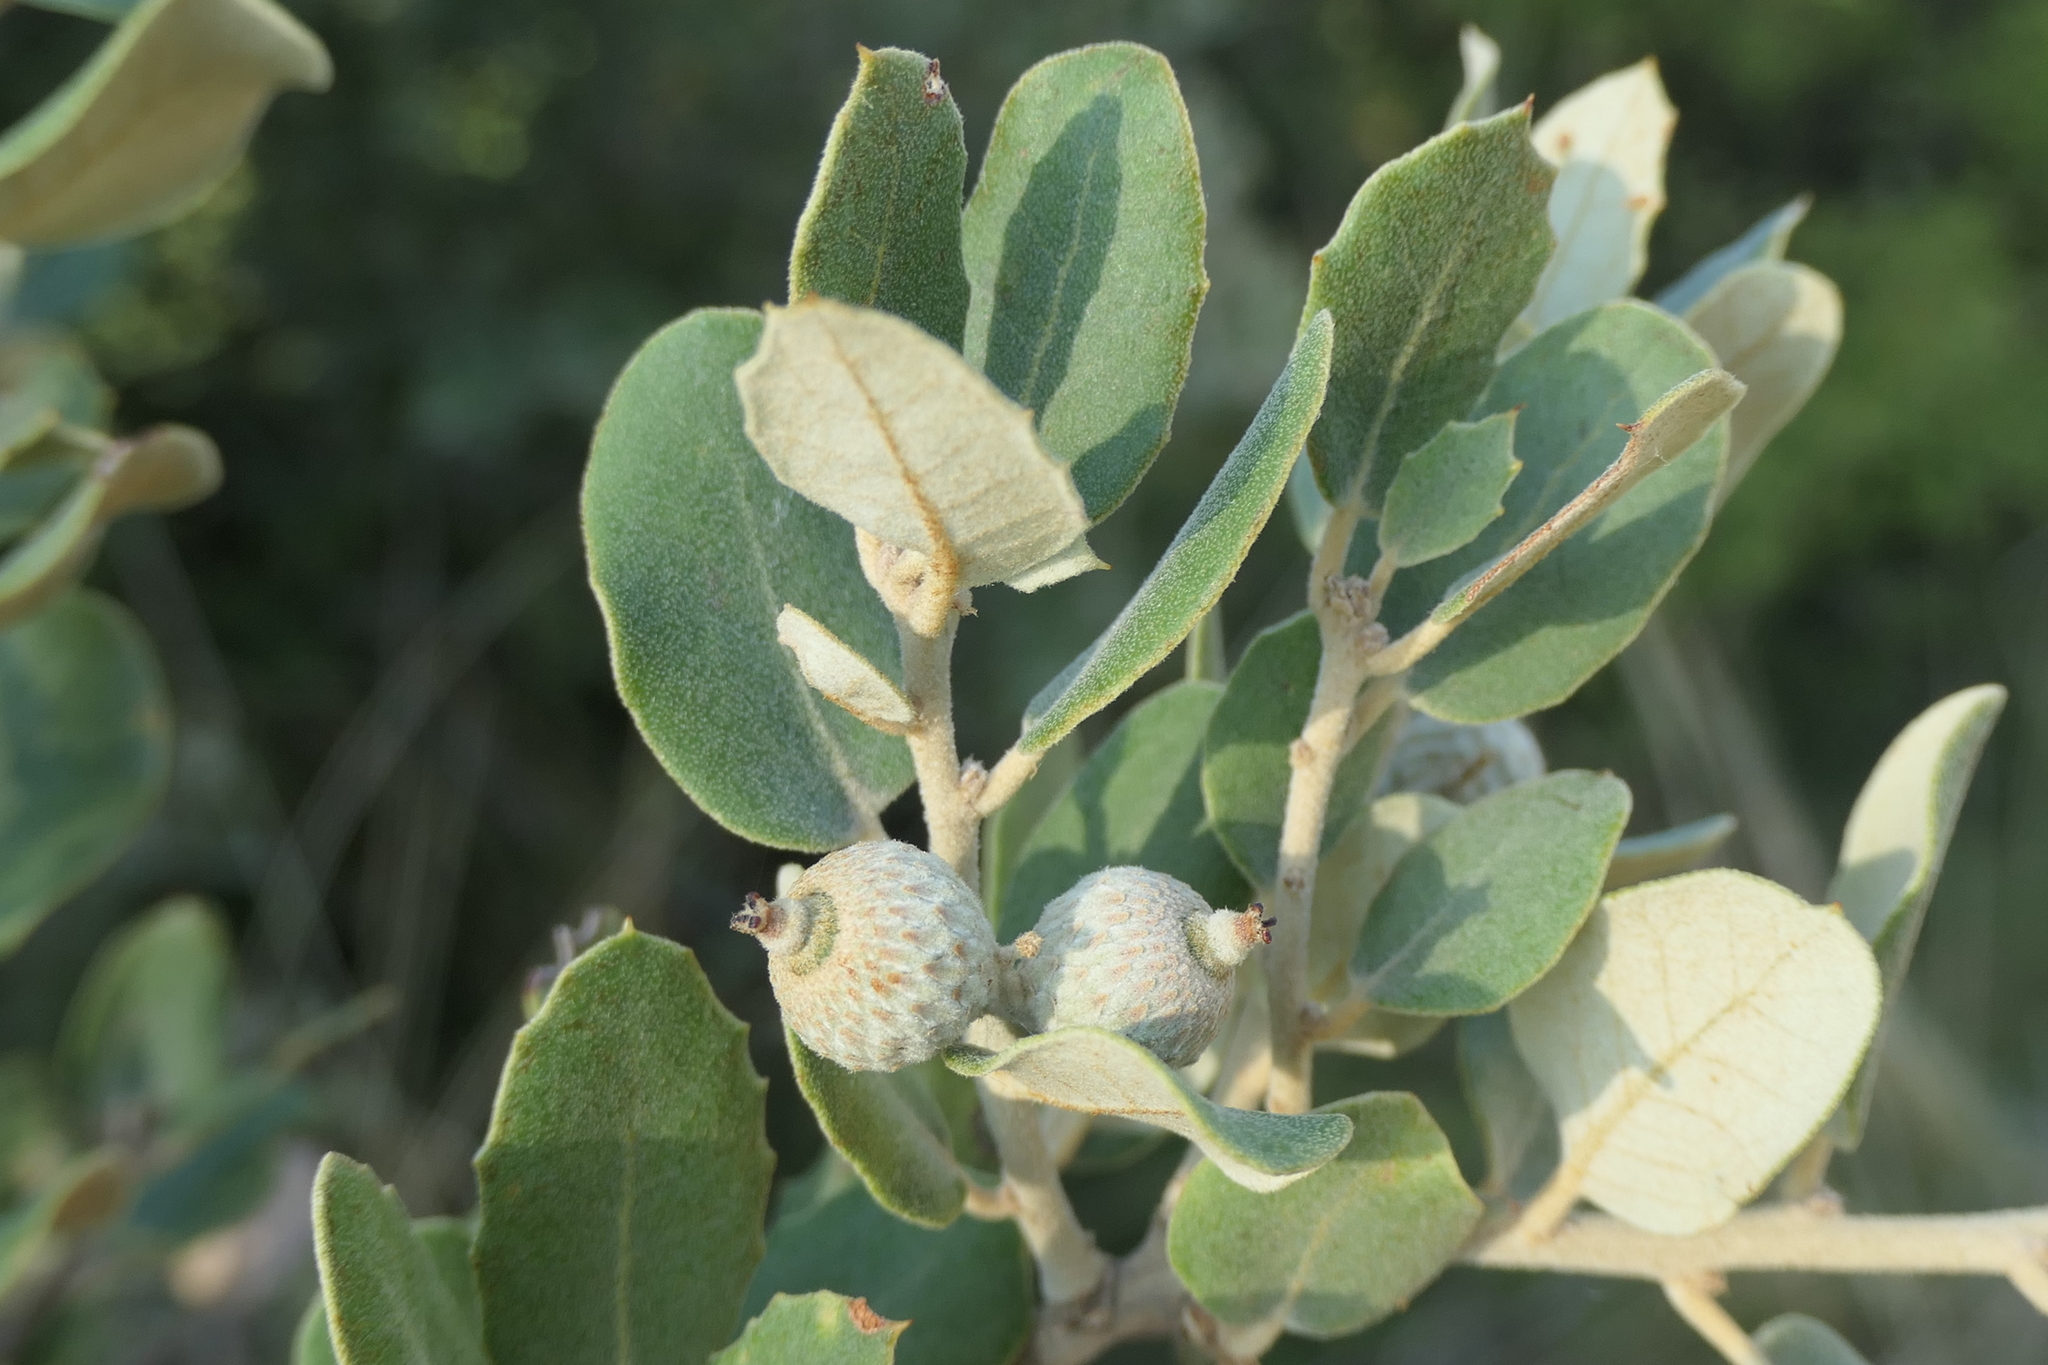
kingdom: Plantae
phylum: Tracheophyta
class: Magnoliopsida
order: Fagales
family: Fagaceae
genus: Quercus
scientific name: Quercus rotundifolia
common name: Holm oak
